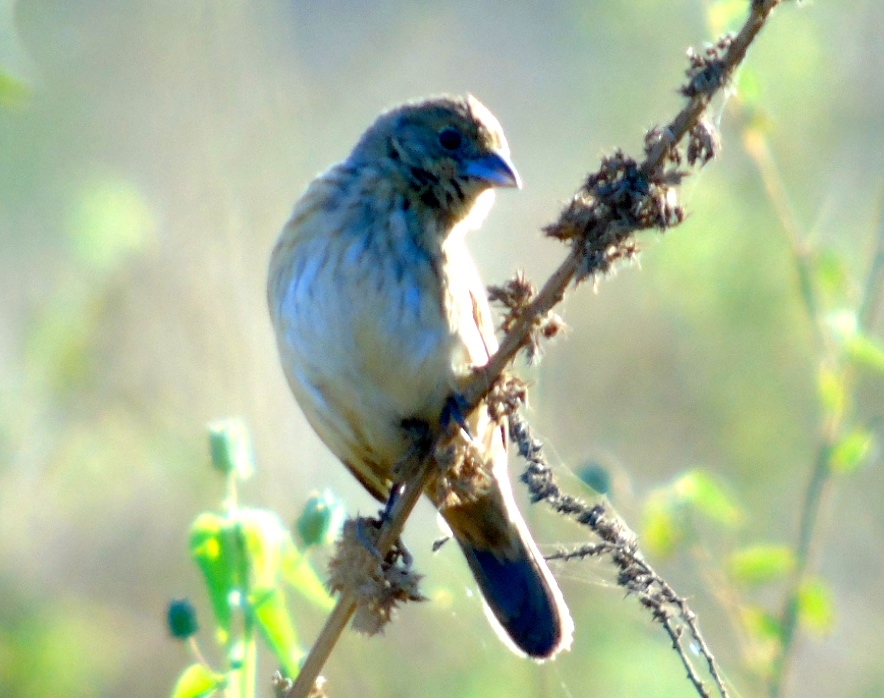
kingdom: Animalia
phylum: Chordata
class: Aves
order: Passeriformes
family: Thraupidae
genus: Volatinia
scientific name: Volatinia jacarina
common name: Blue-black grassquit
